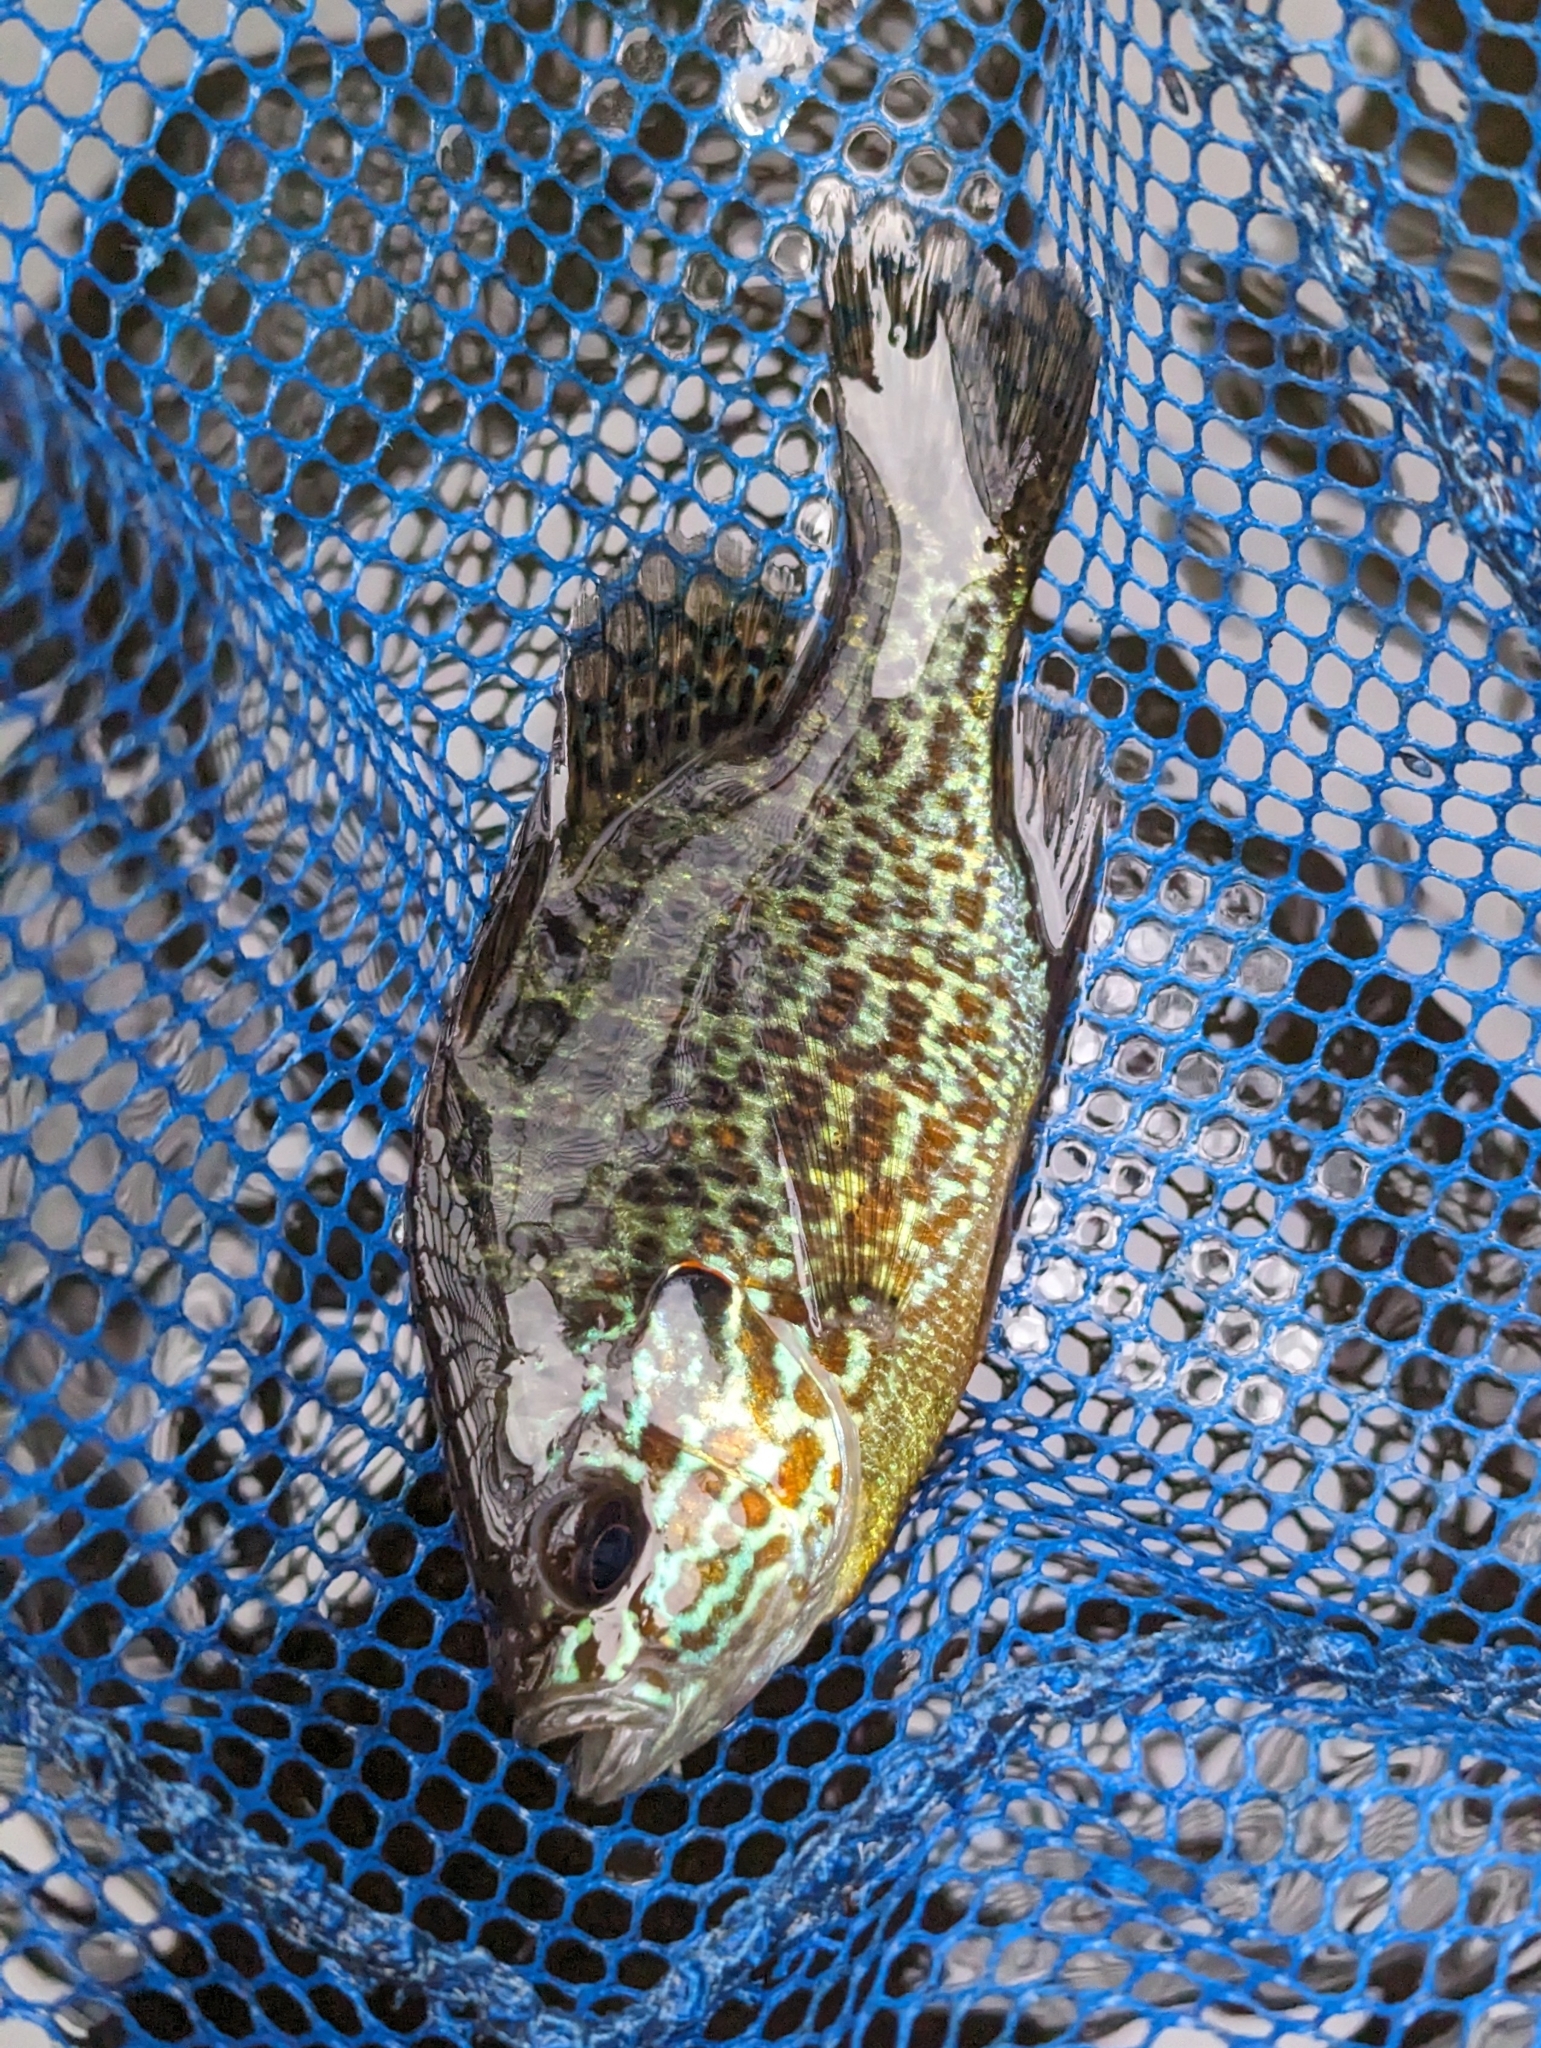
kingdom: Animalia
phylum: Chordata
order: Perciformes
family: Centrarchidae
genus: Lepomis
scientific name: Lepomis gibbosus
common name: Pumpkinseed
